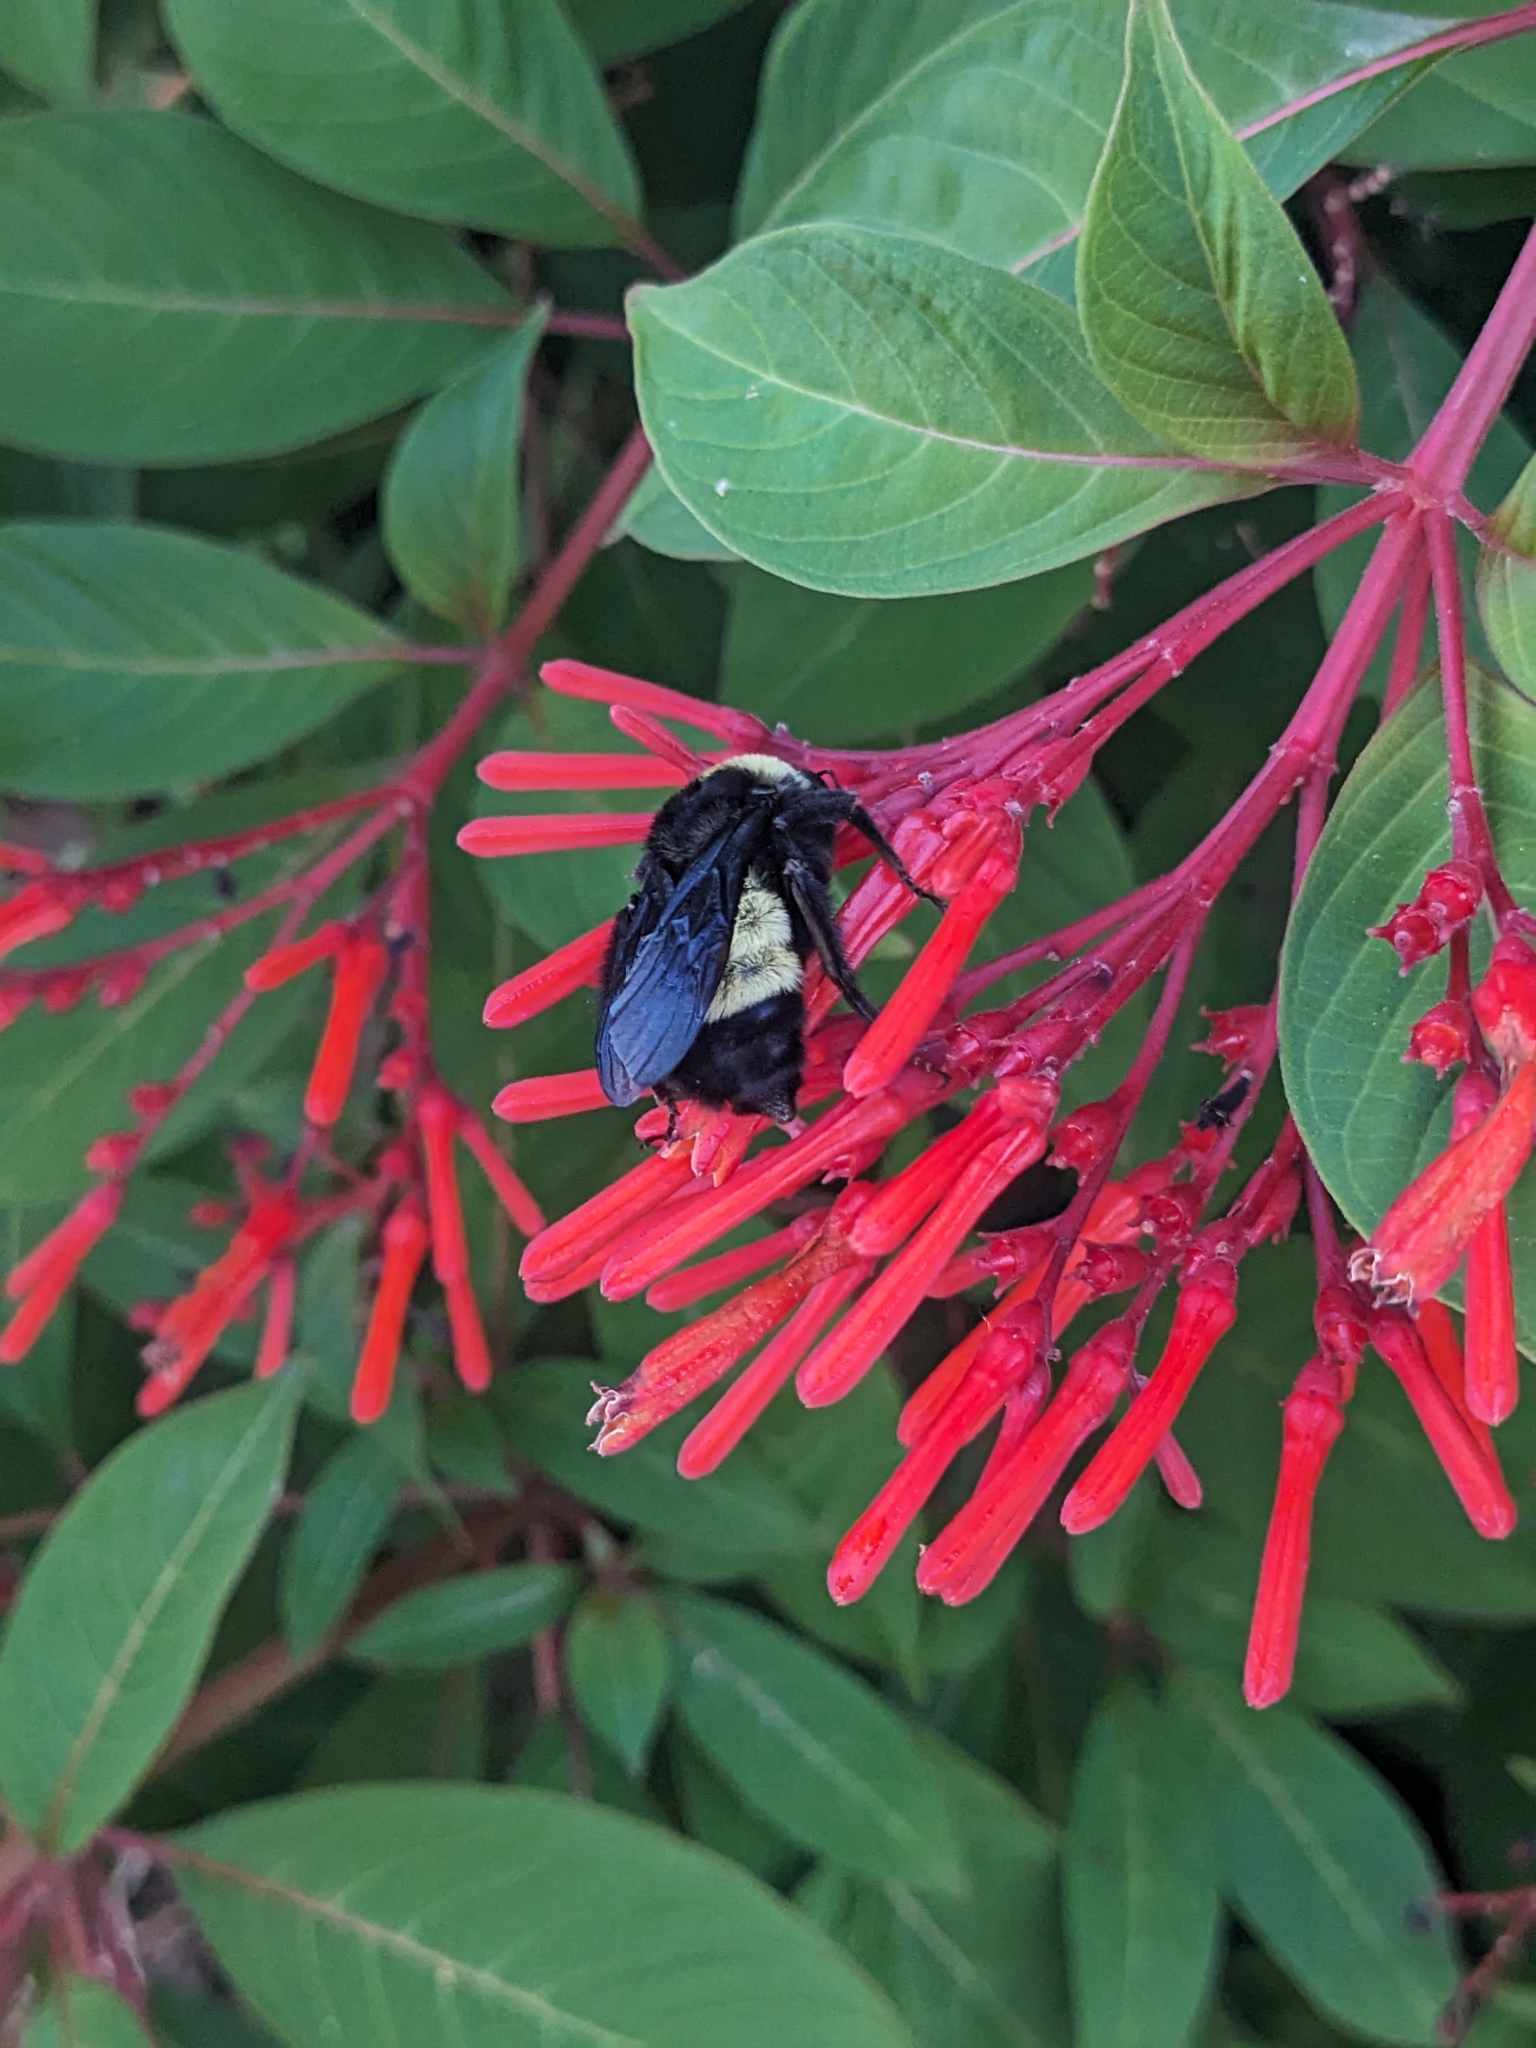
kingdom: Animalia
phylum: Arthropoda
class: Insecta
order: Hymenoptera
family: Apidae
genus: Bombus
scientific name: Bombus pensylvanicus
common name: Bumble bee
